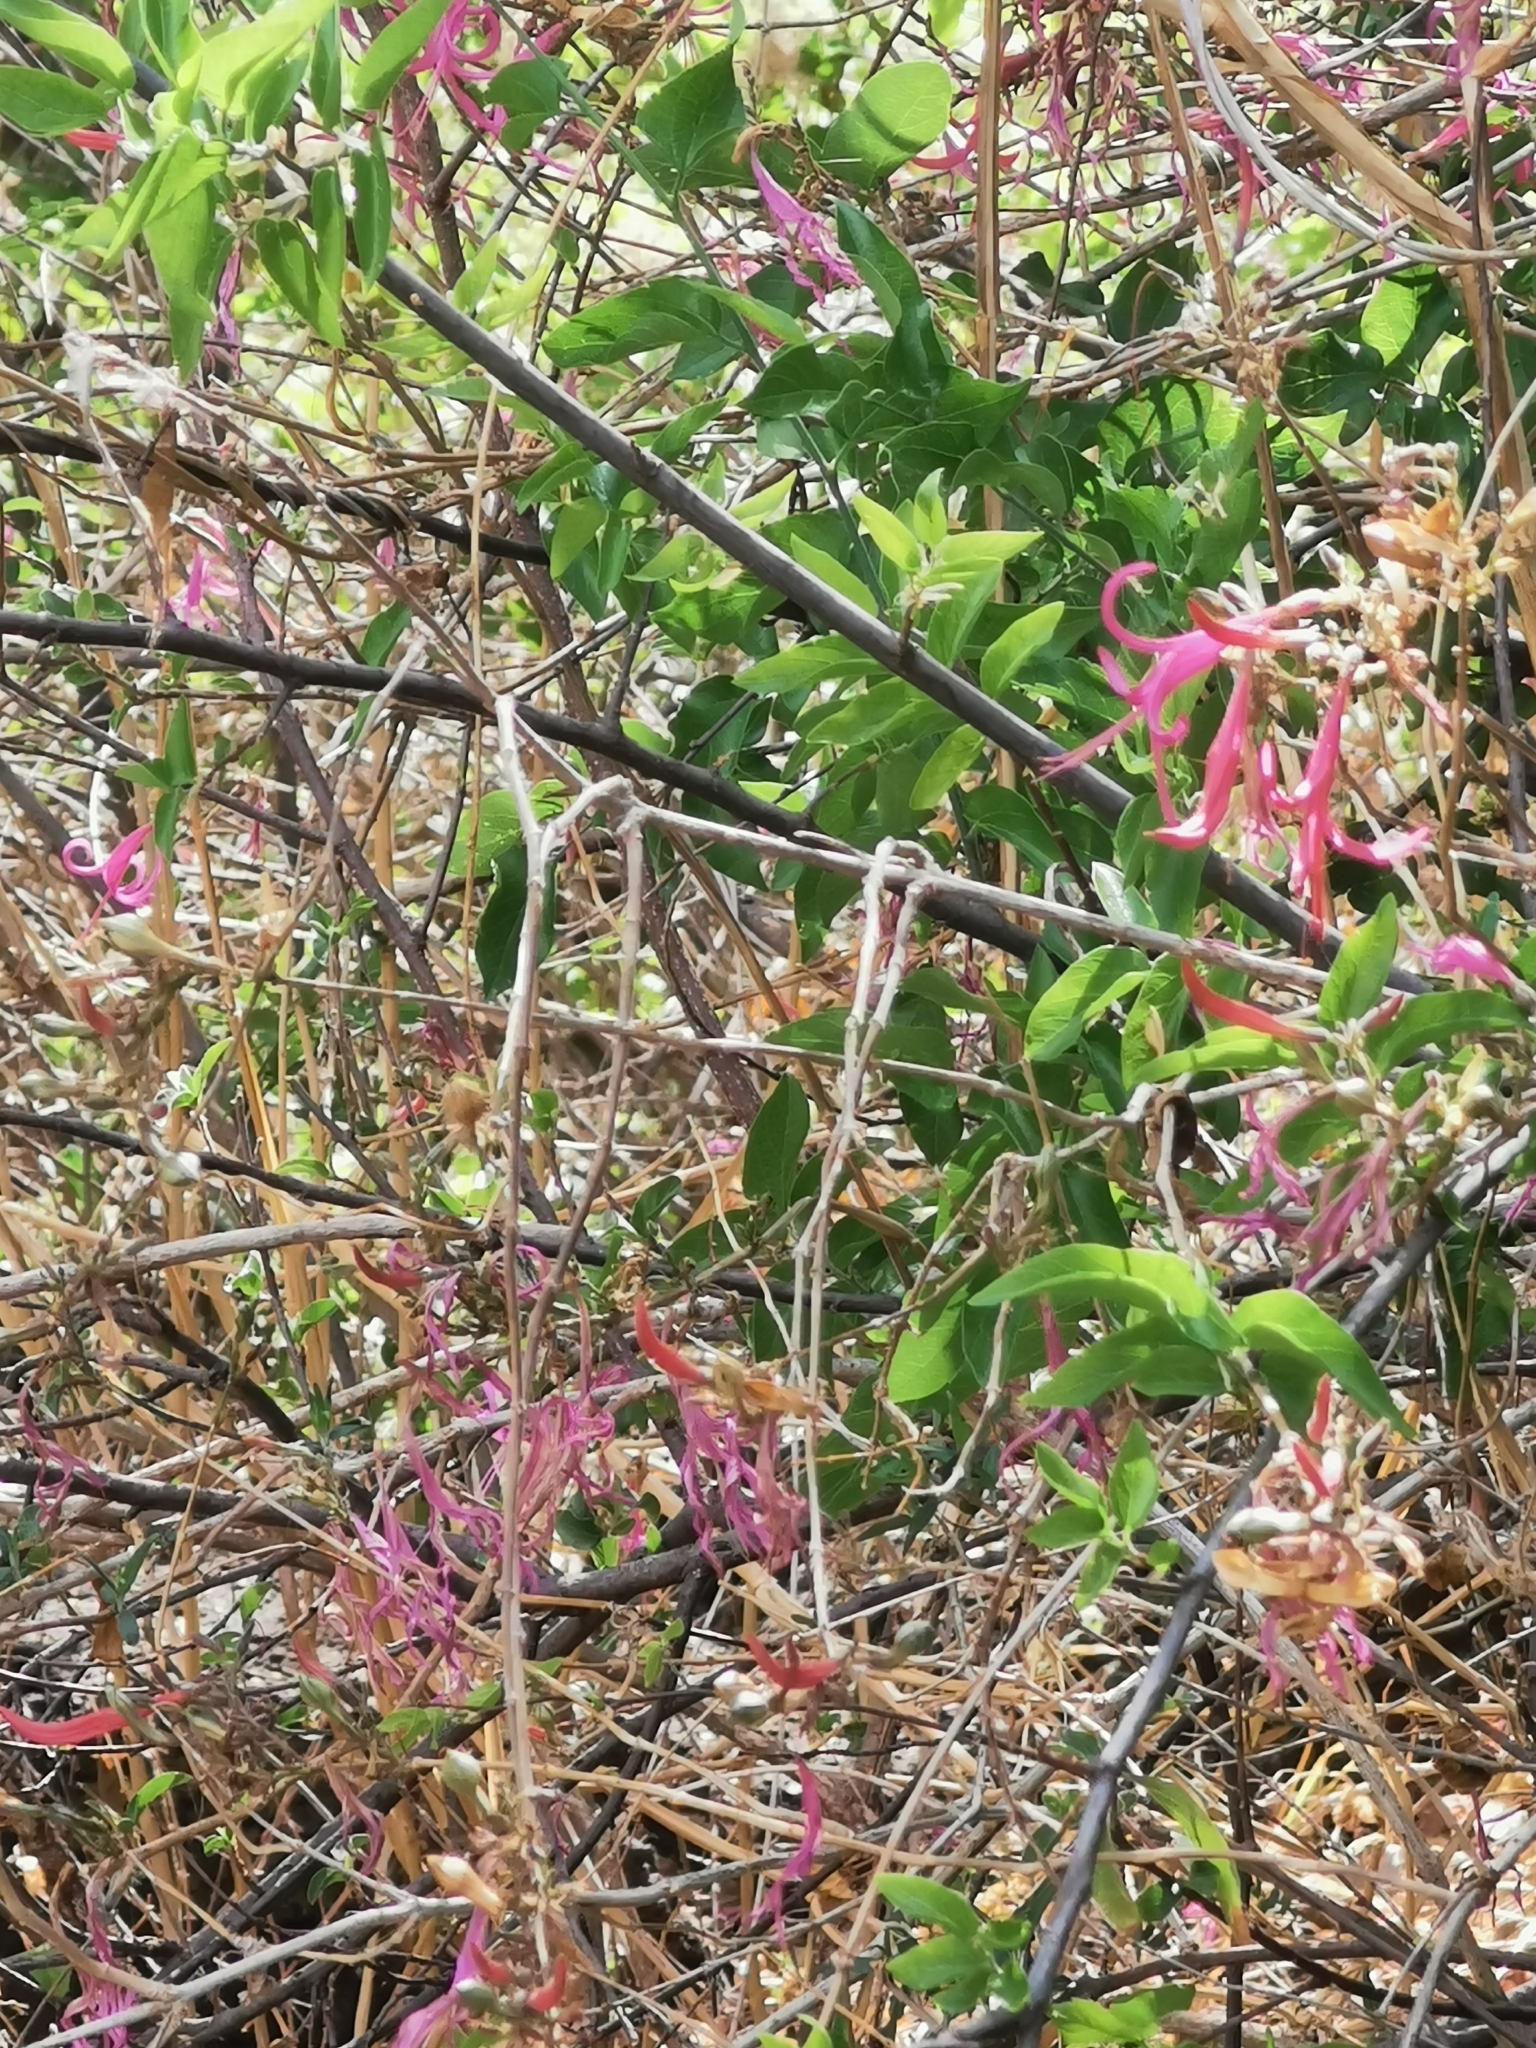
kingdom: Plantae
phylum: Tracheophyta
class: Magnoliopsida
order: Lamiales
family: Acanthaceae
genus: Anisacanthus
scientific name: Anisacanthus puberulus
